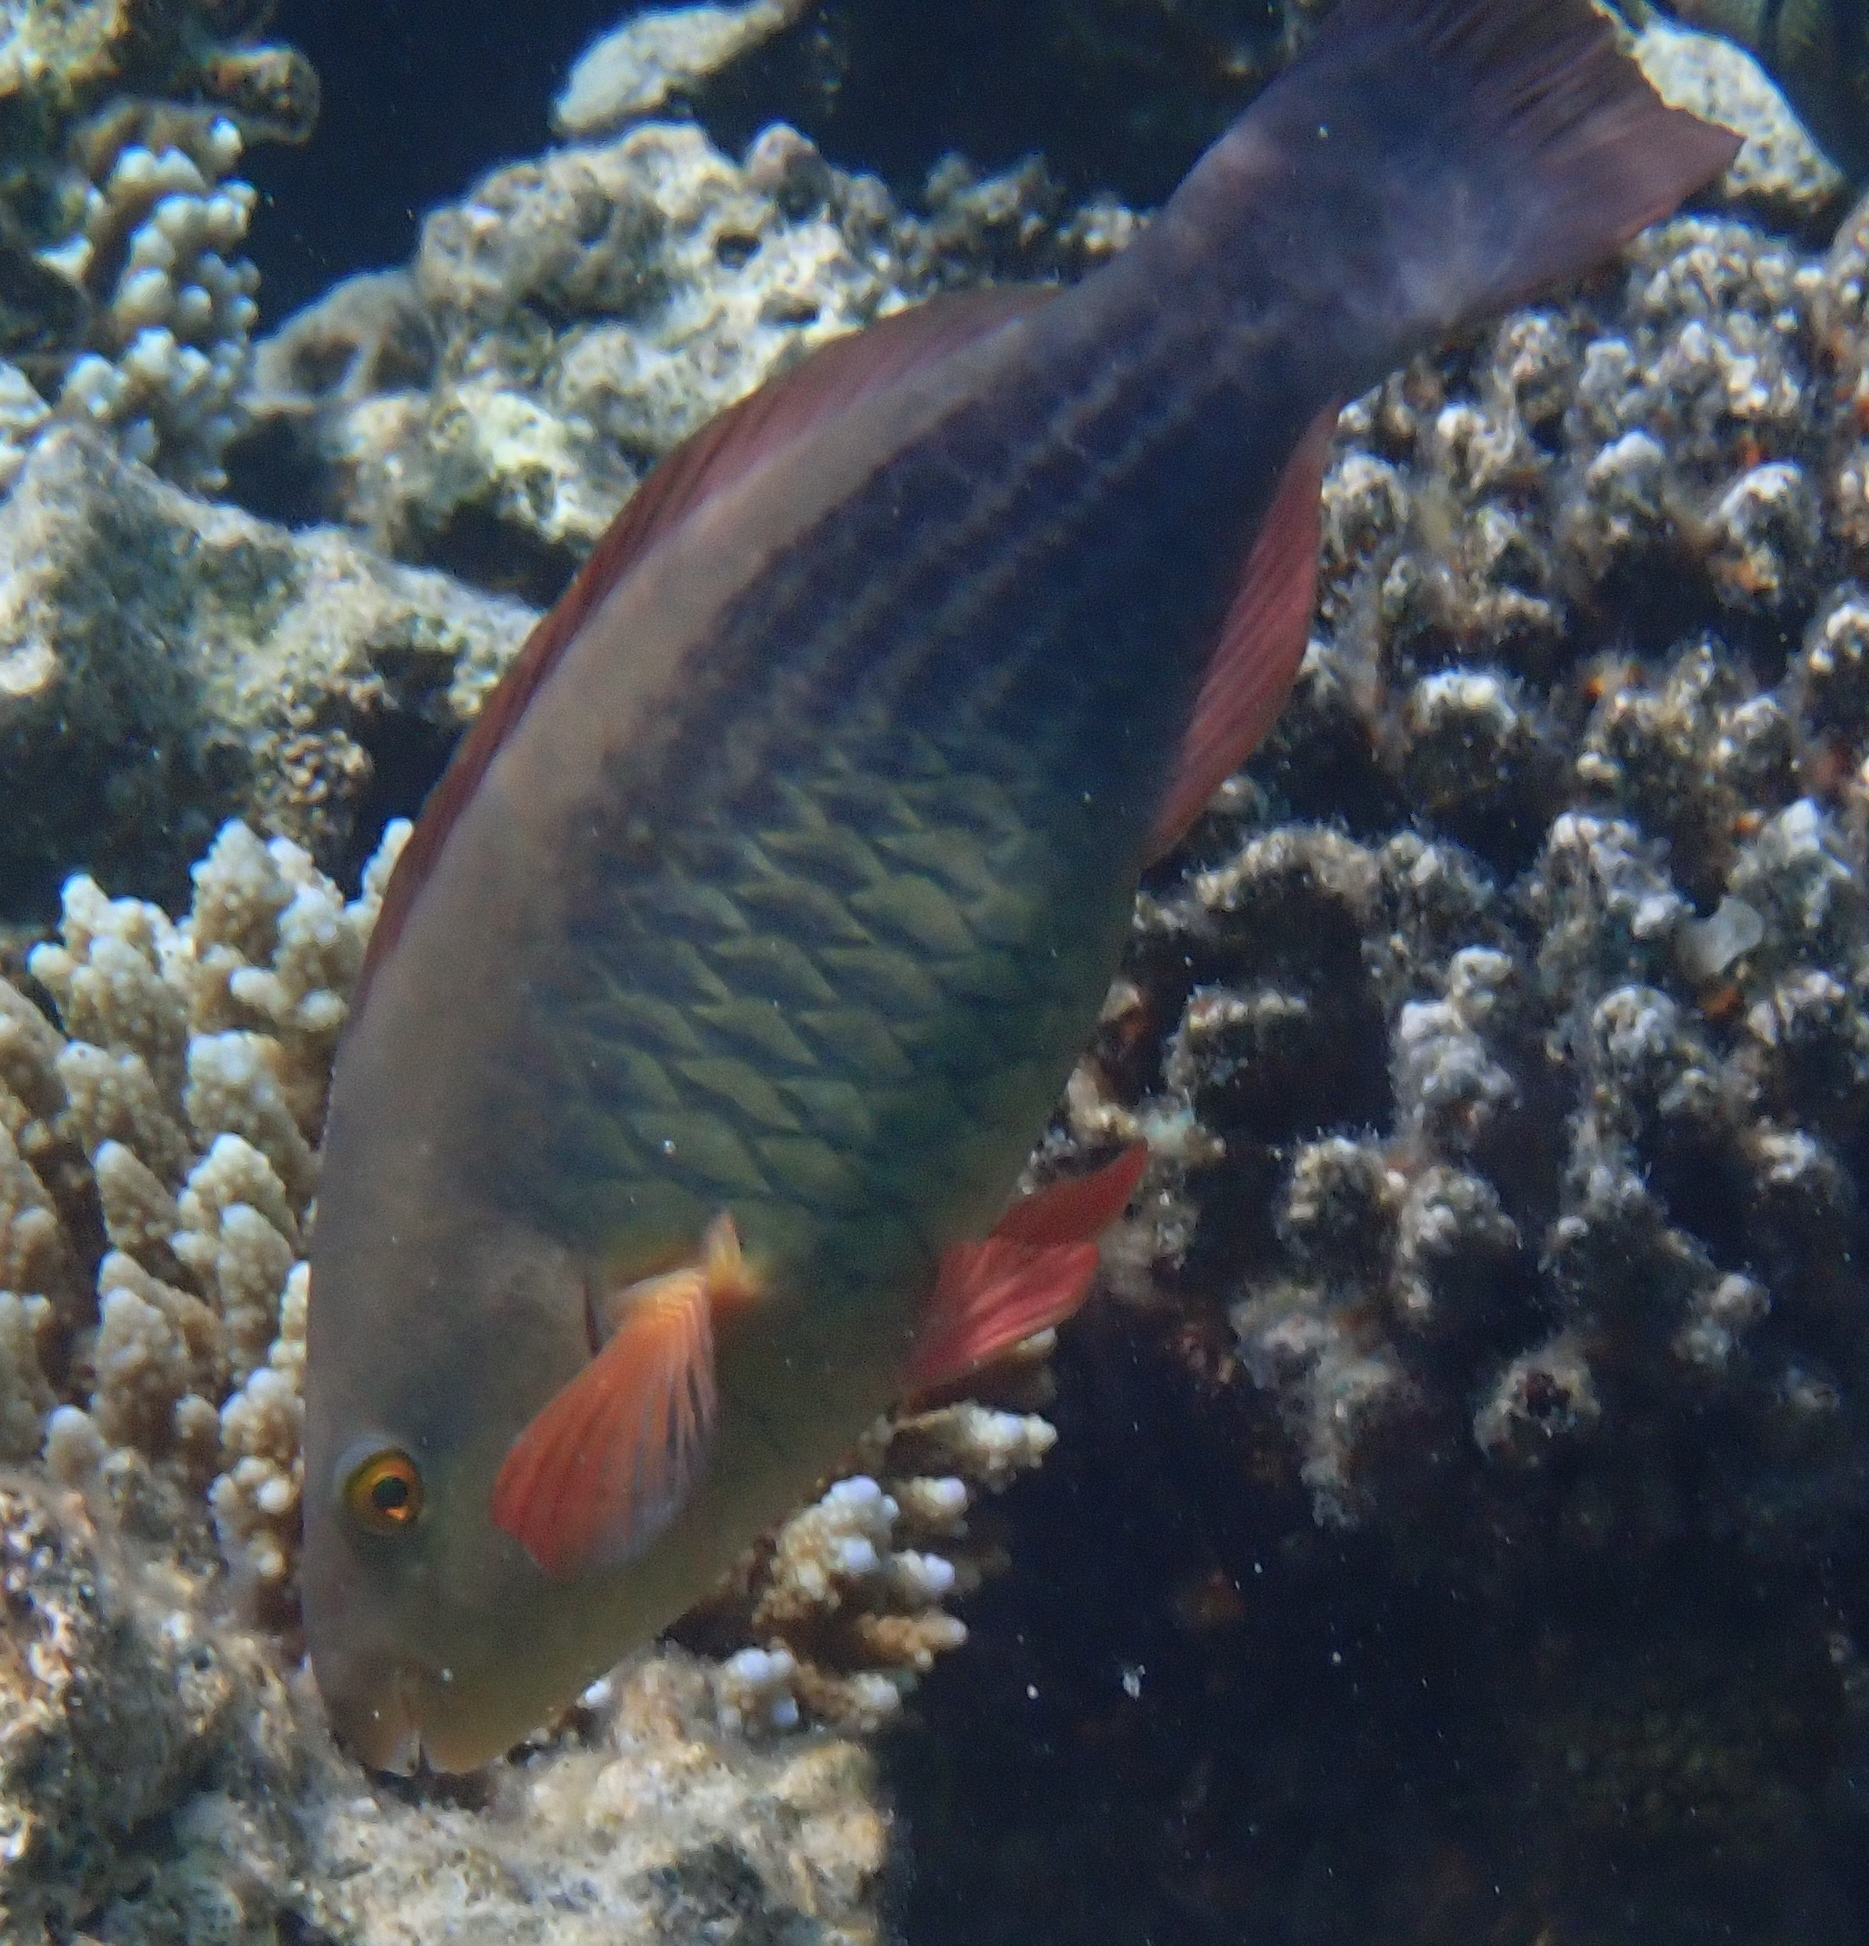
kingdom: Animalia
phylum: Chordata
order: Perciformes
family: Scaridae
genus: Scarus
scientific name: Scarus frenatus
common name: Bridled parrotfish
